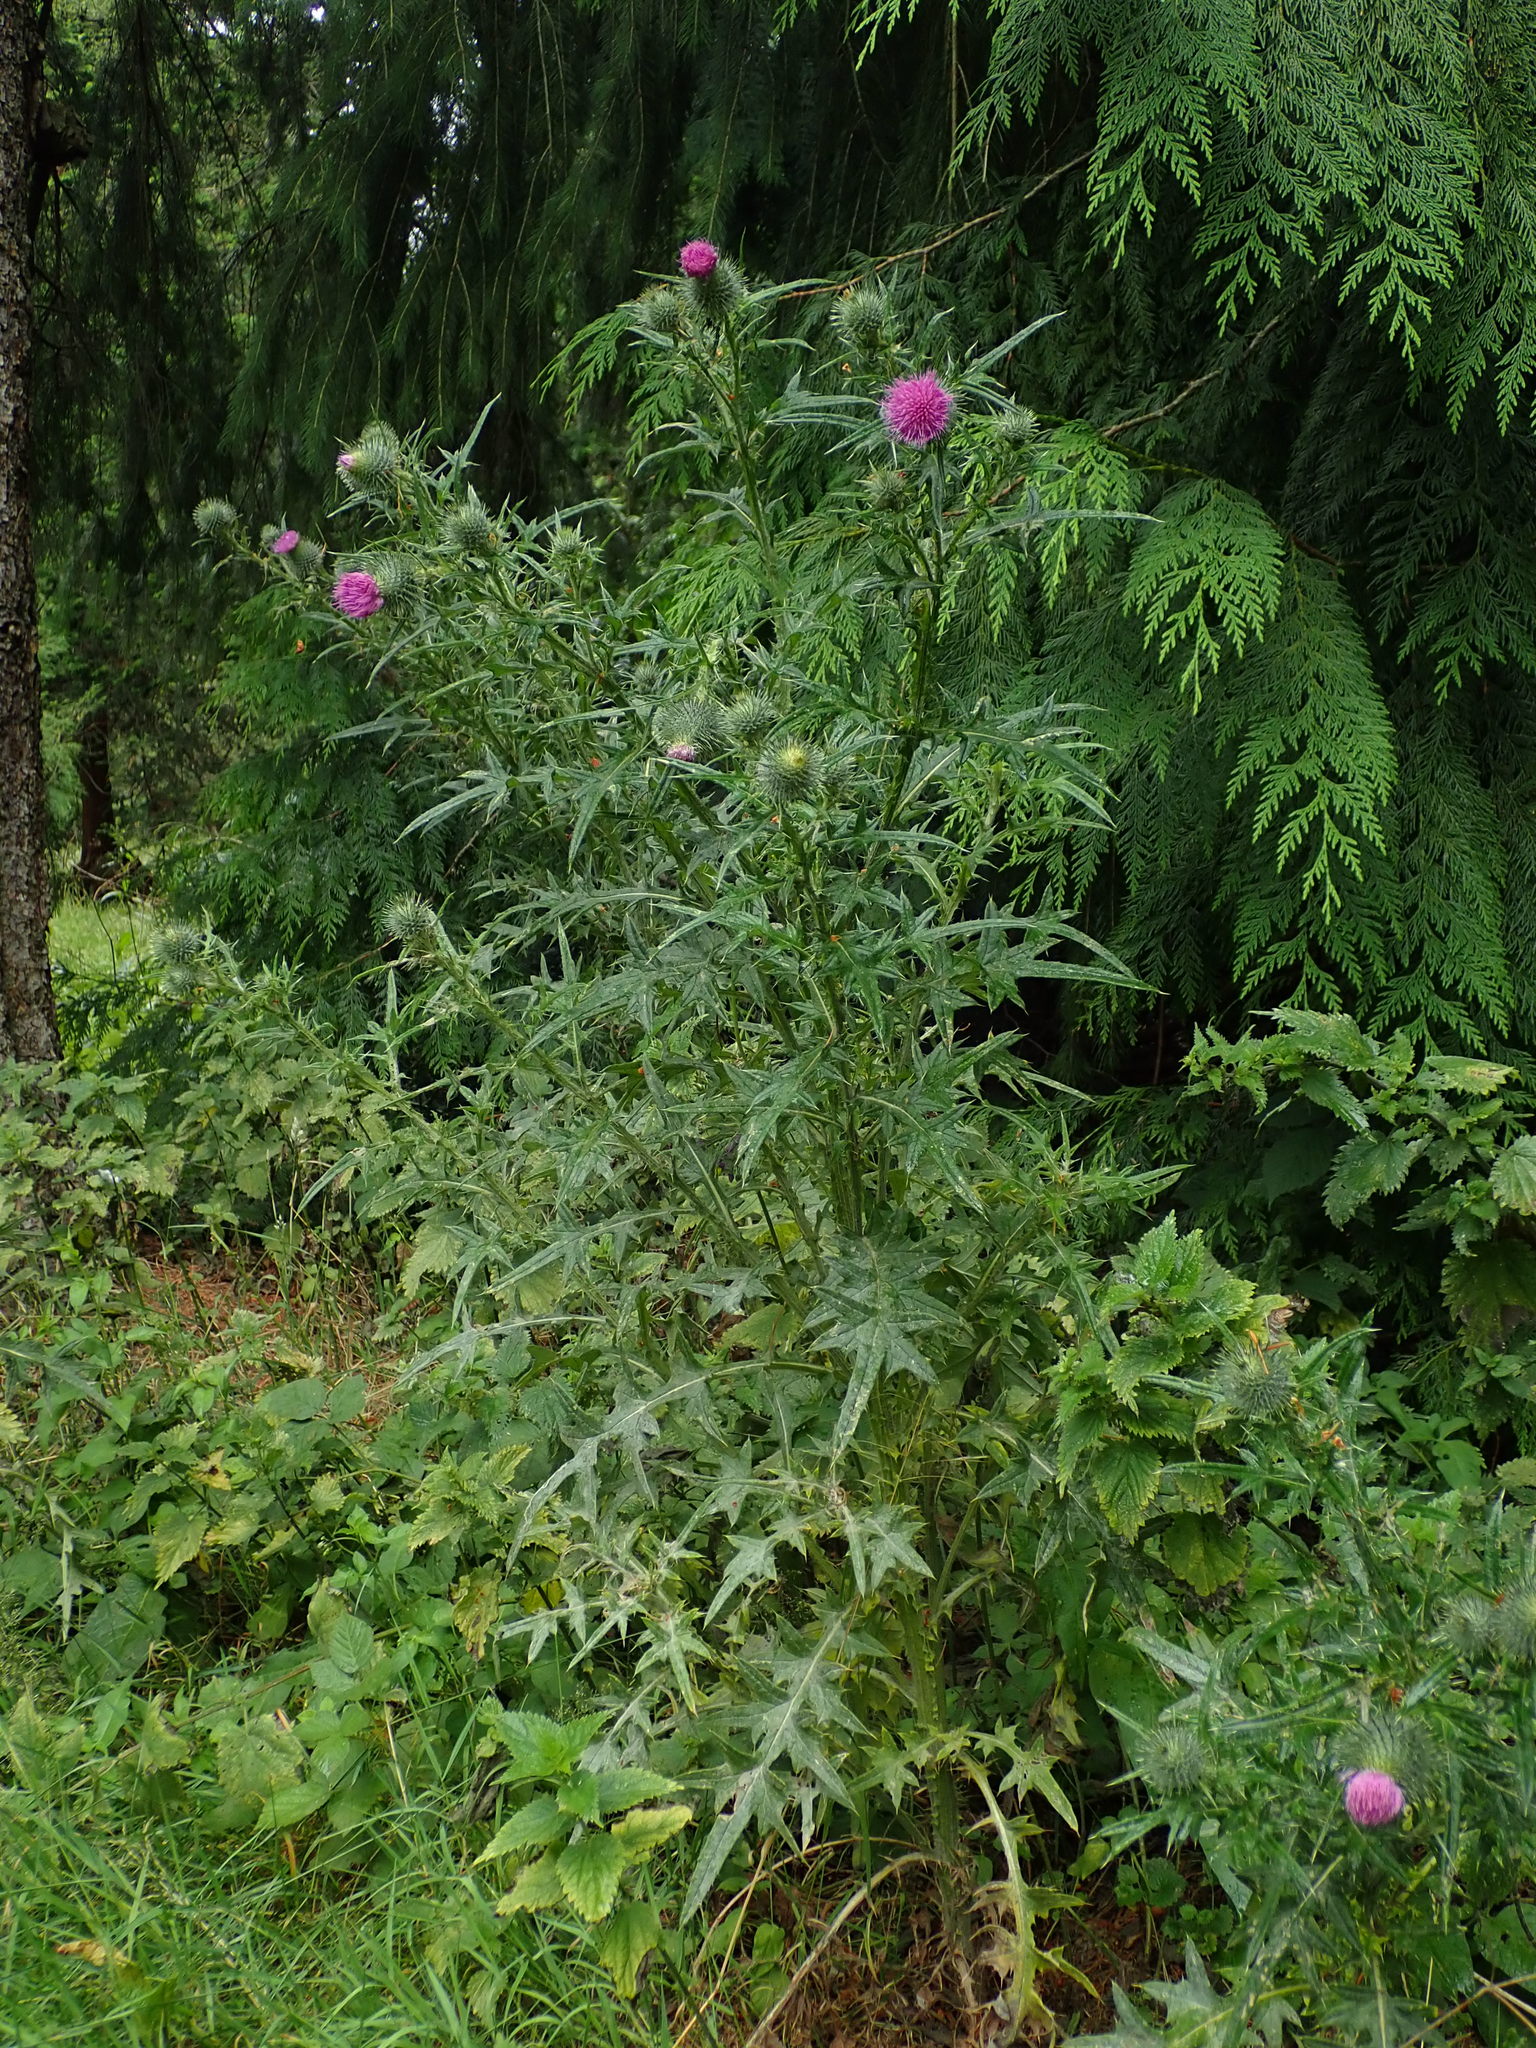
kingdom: Plantae
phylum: Tracheophyta
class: Magnoliopsida
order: Asterales
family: Asteraceae
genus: Cirsium
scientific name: Cirsium vulgare
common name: Bull thistle
